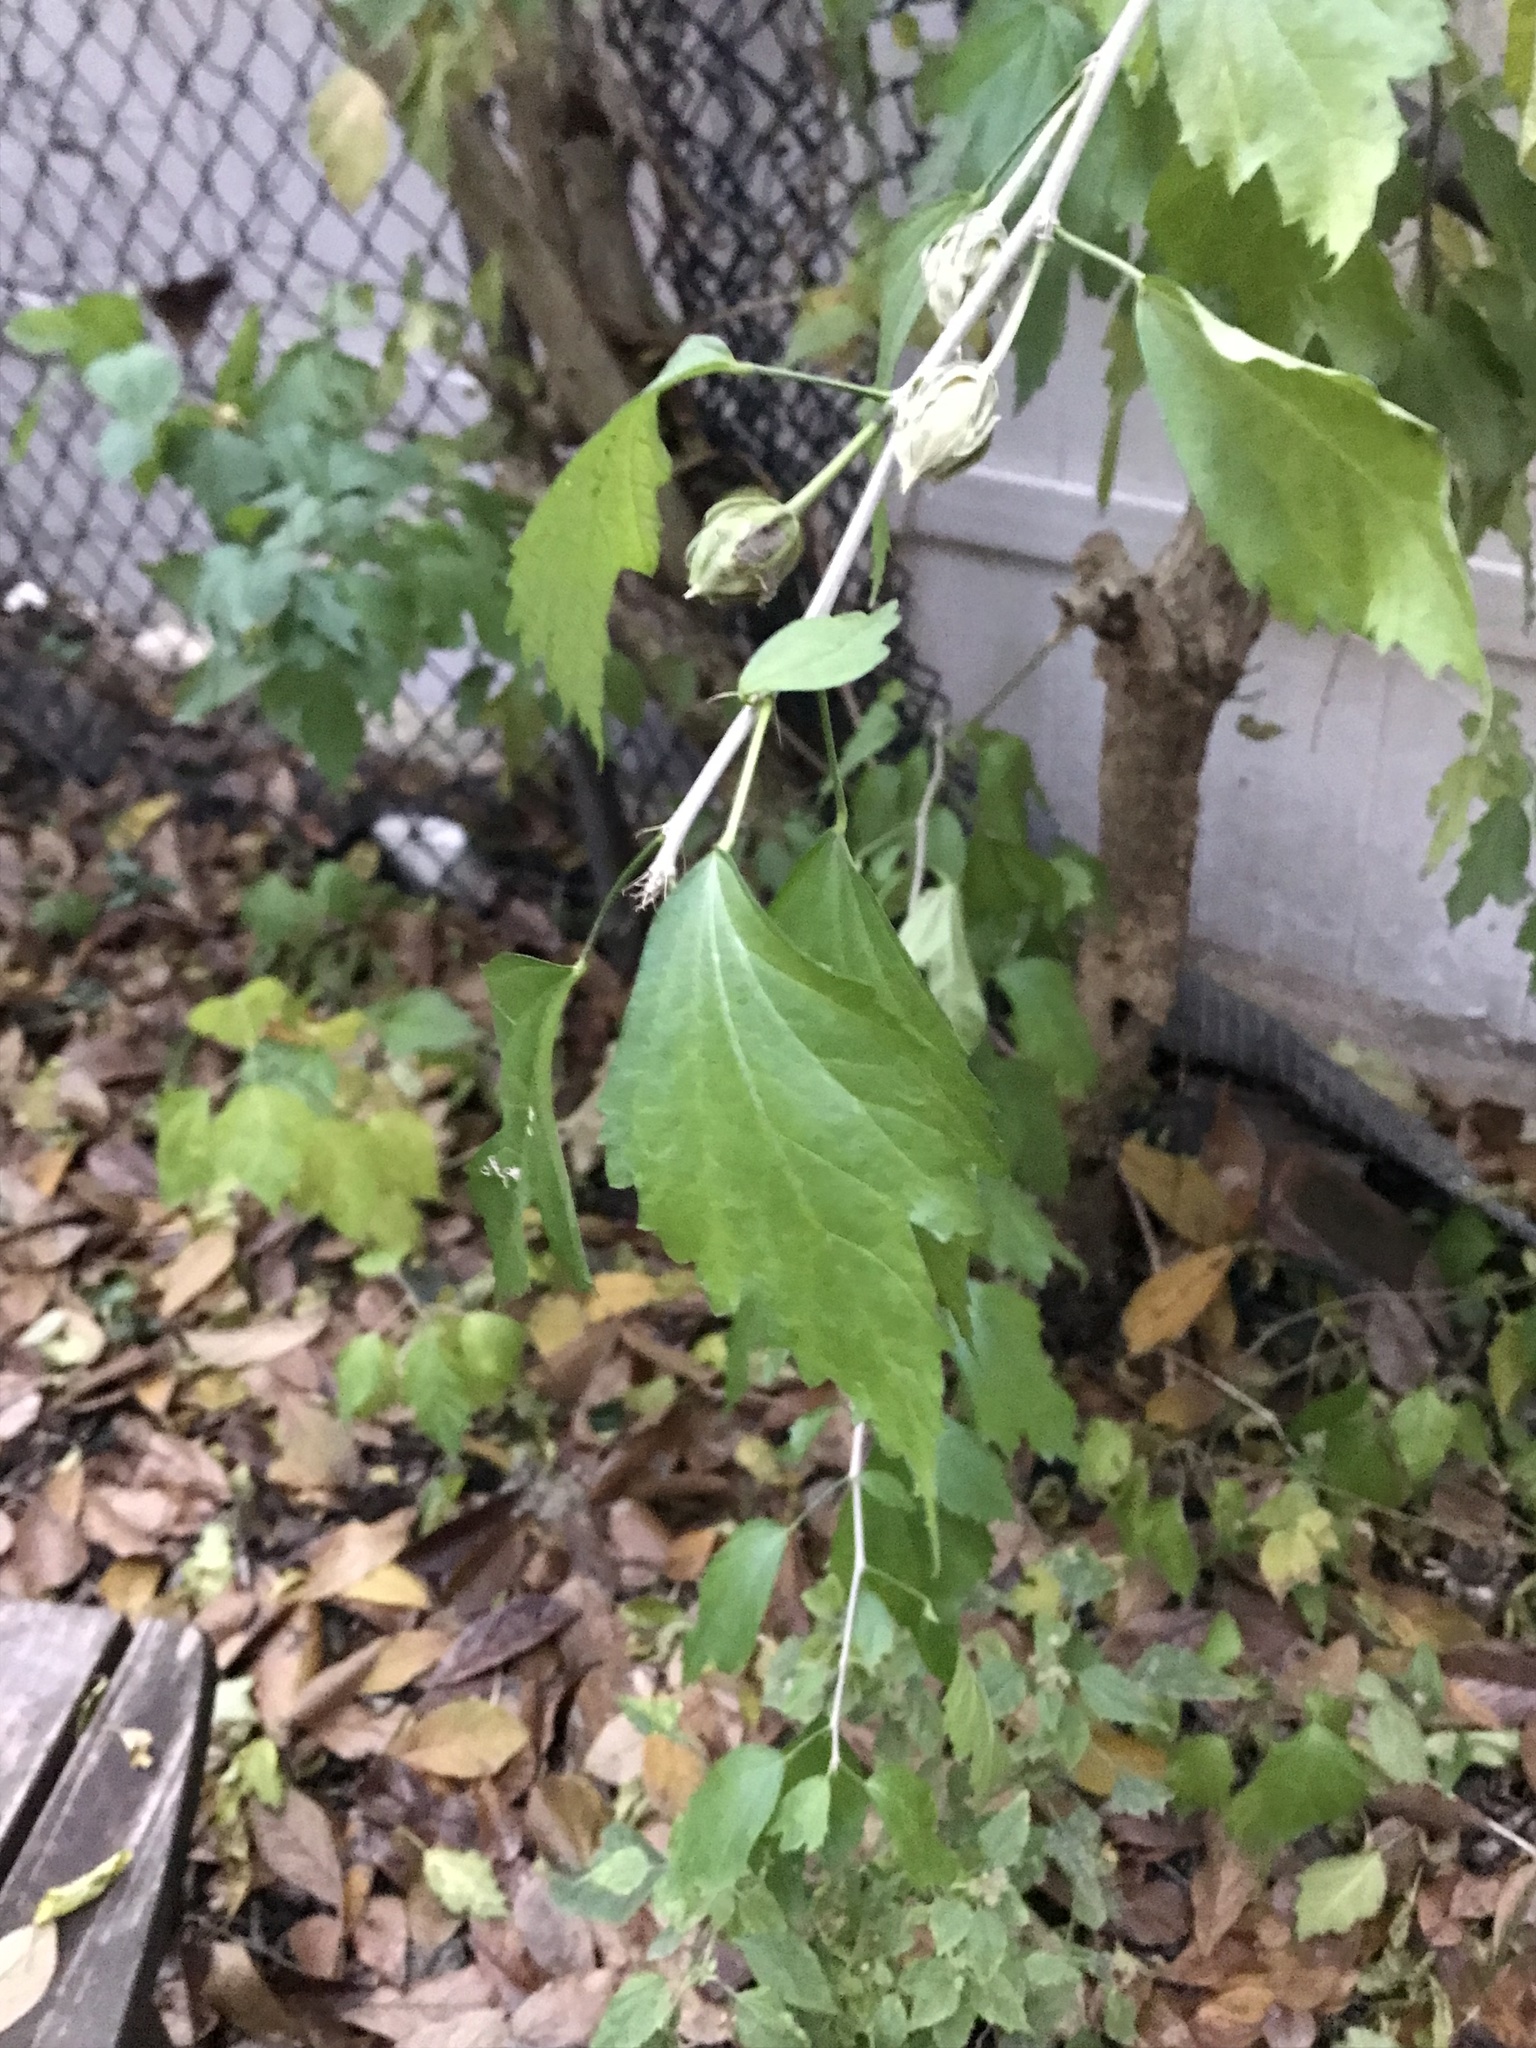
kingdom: Plantae
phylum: Tracheophyta
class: Magnoliopsida
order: Malvales
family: Malvaceae
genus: Hibiscus
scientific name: Hibiscus syriacus
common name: Syrian ketmia
